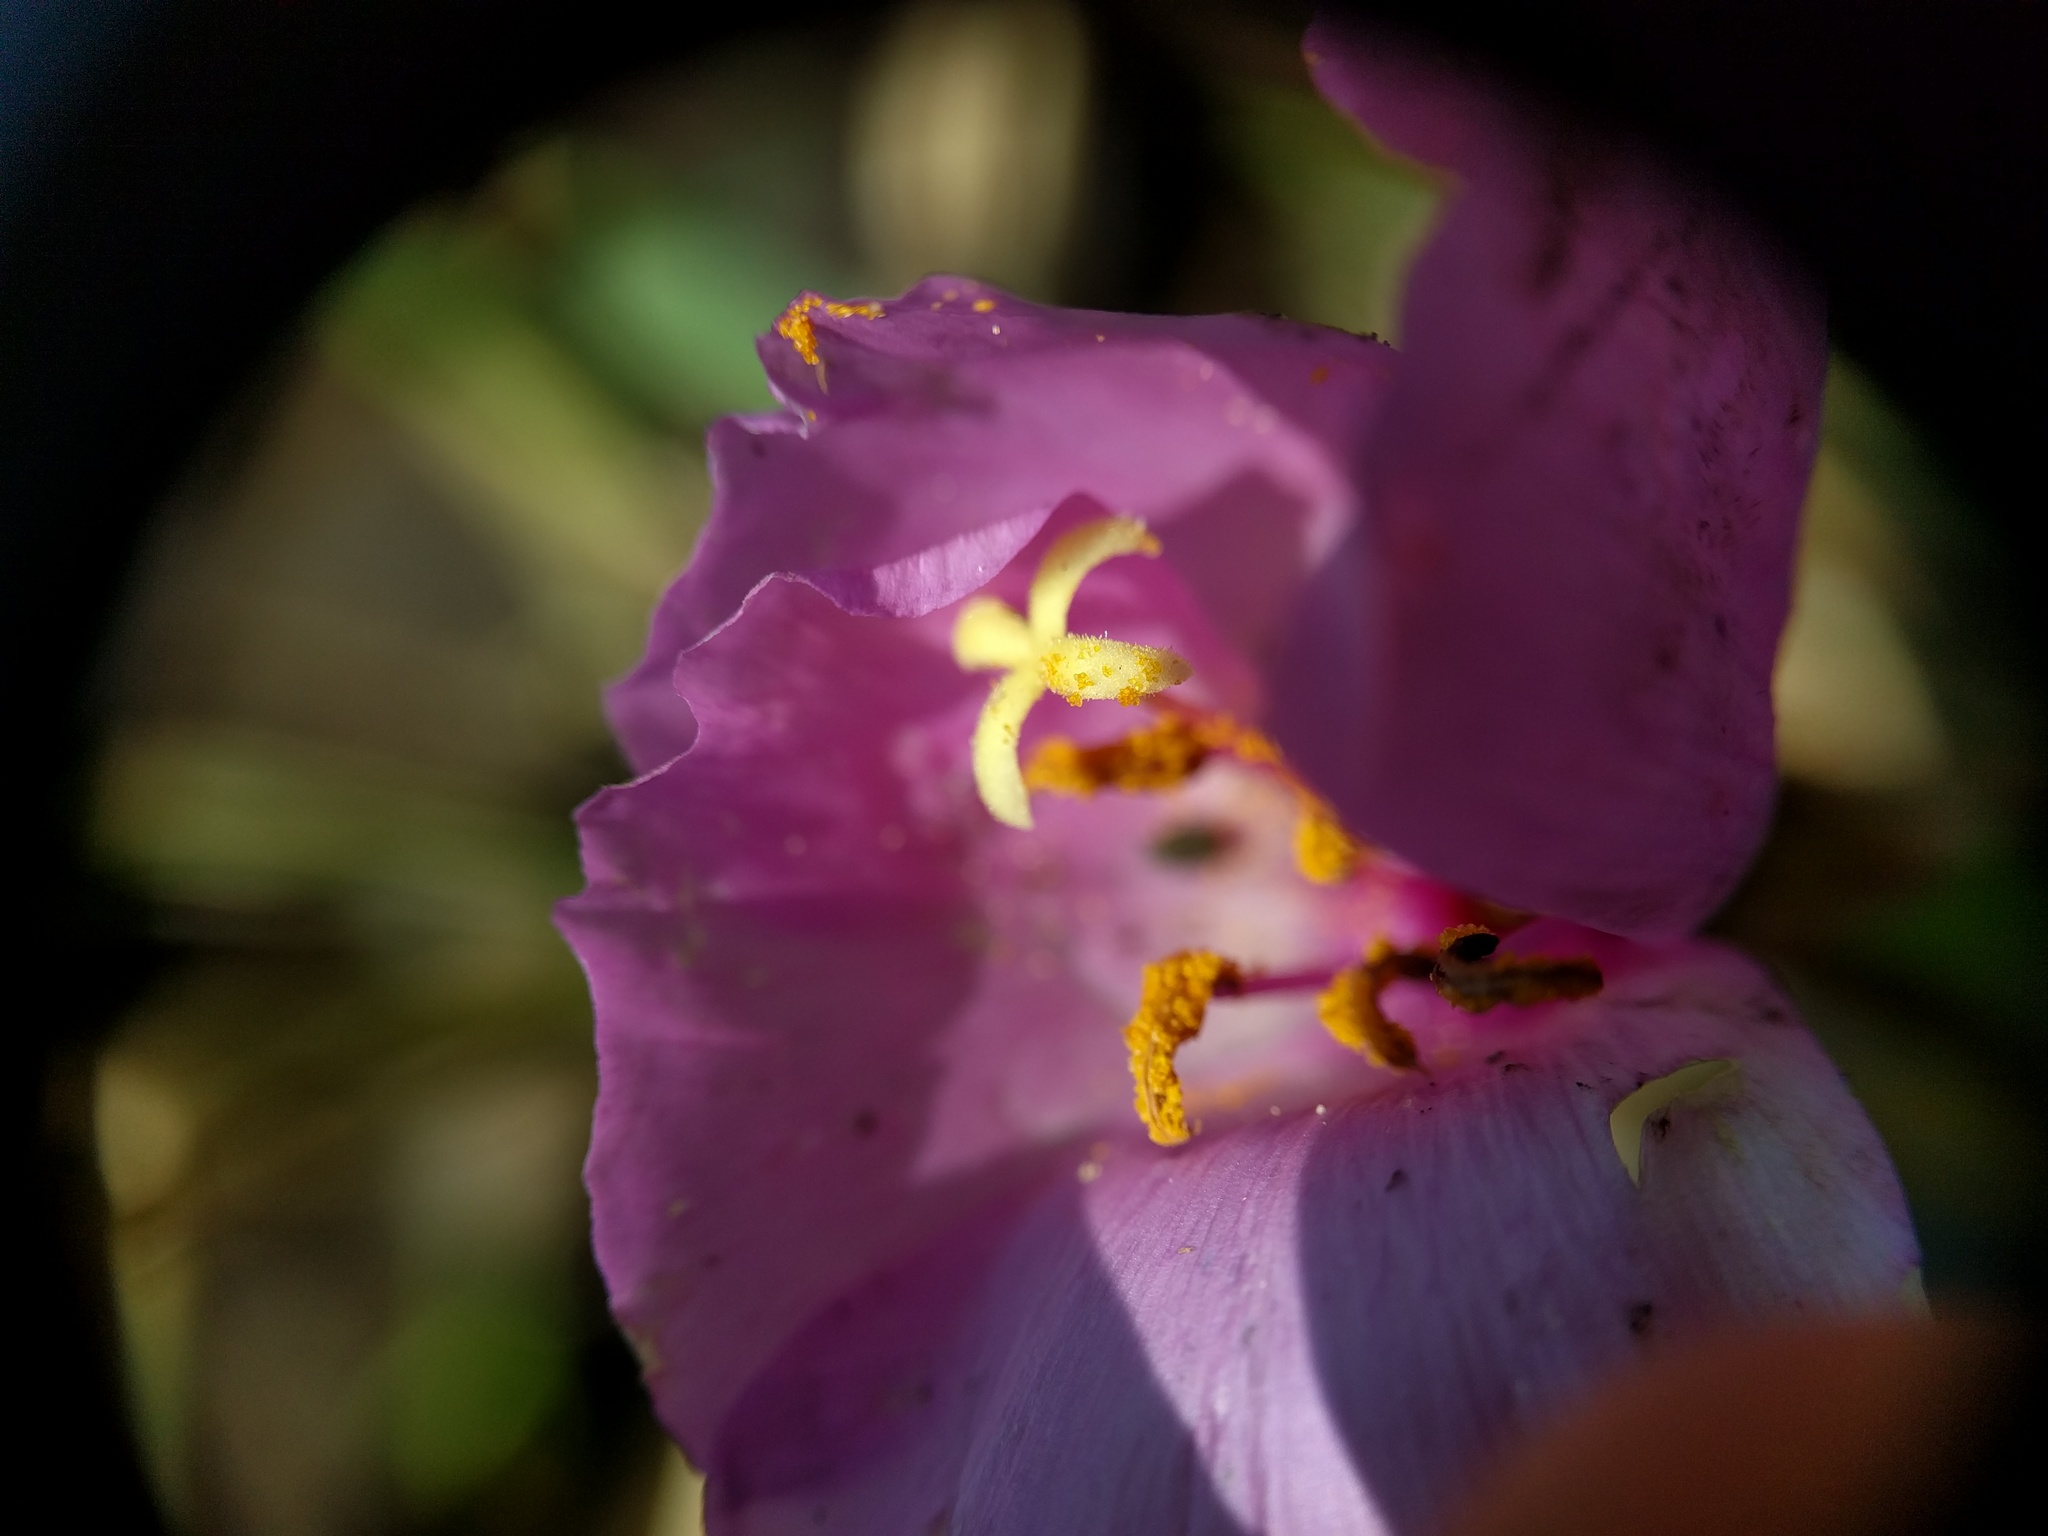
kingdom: Plantae
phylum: Tracheophyta
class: Magnoliopsida
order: Myrtales
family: Onagraceae
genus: Clarkia
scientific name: Clarkia arcuata
